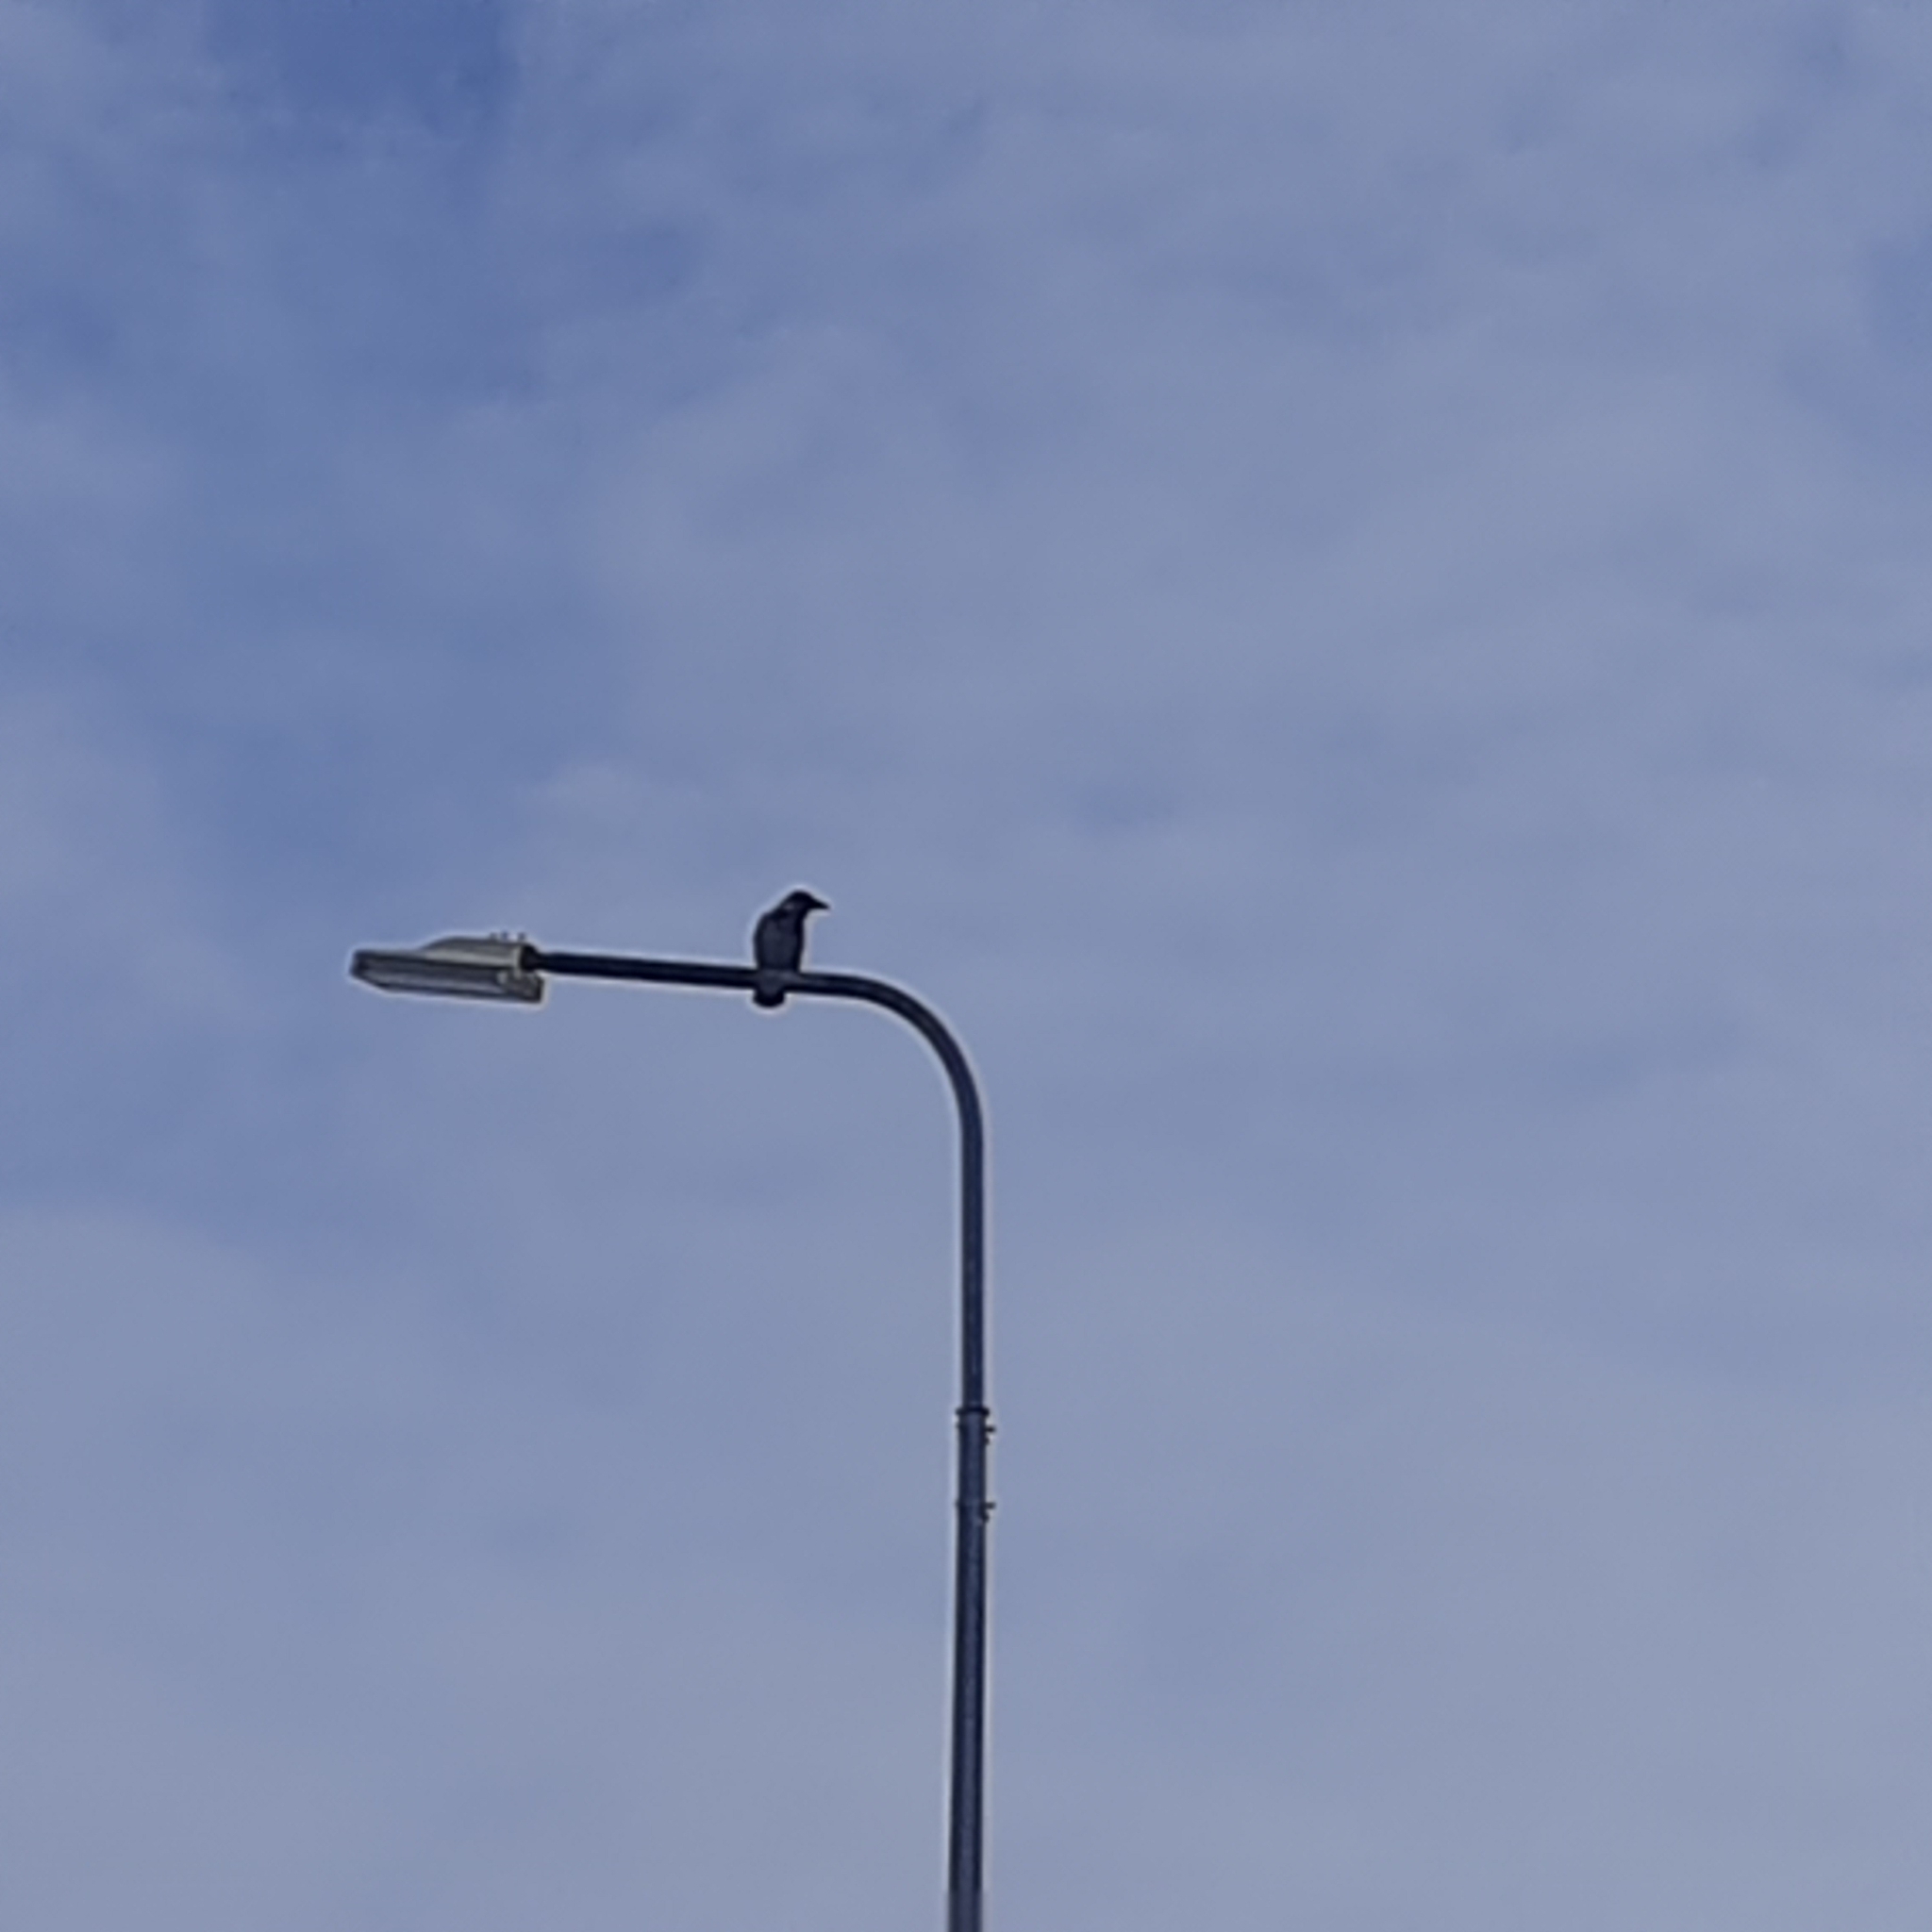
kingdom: Animalia
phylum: Chordata
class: Aves
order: Passeriformes
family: Corvidae
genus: Corvus
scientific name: Corvus cornix
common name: Hooded crow
